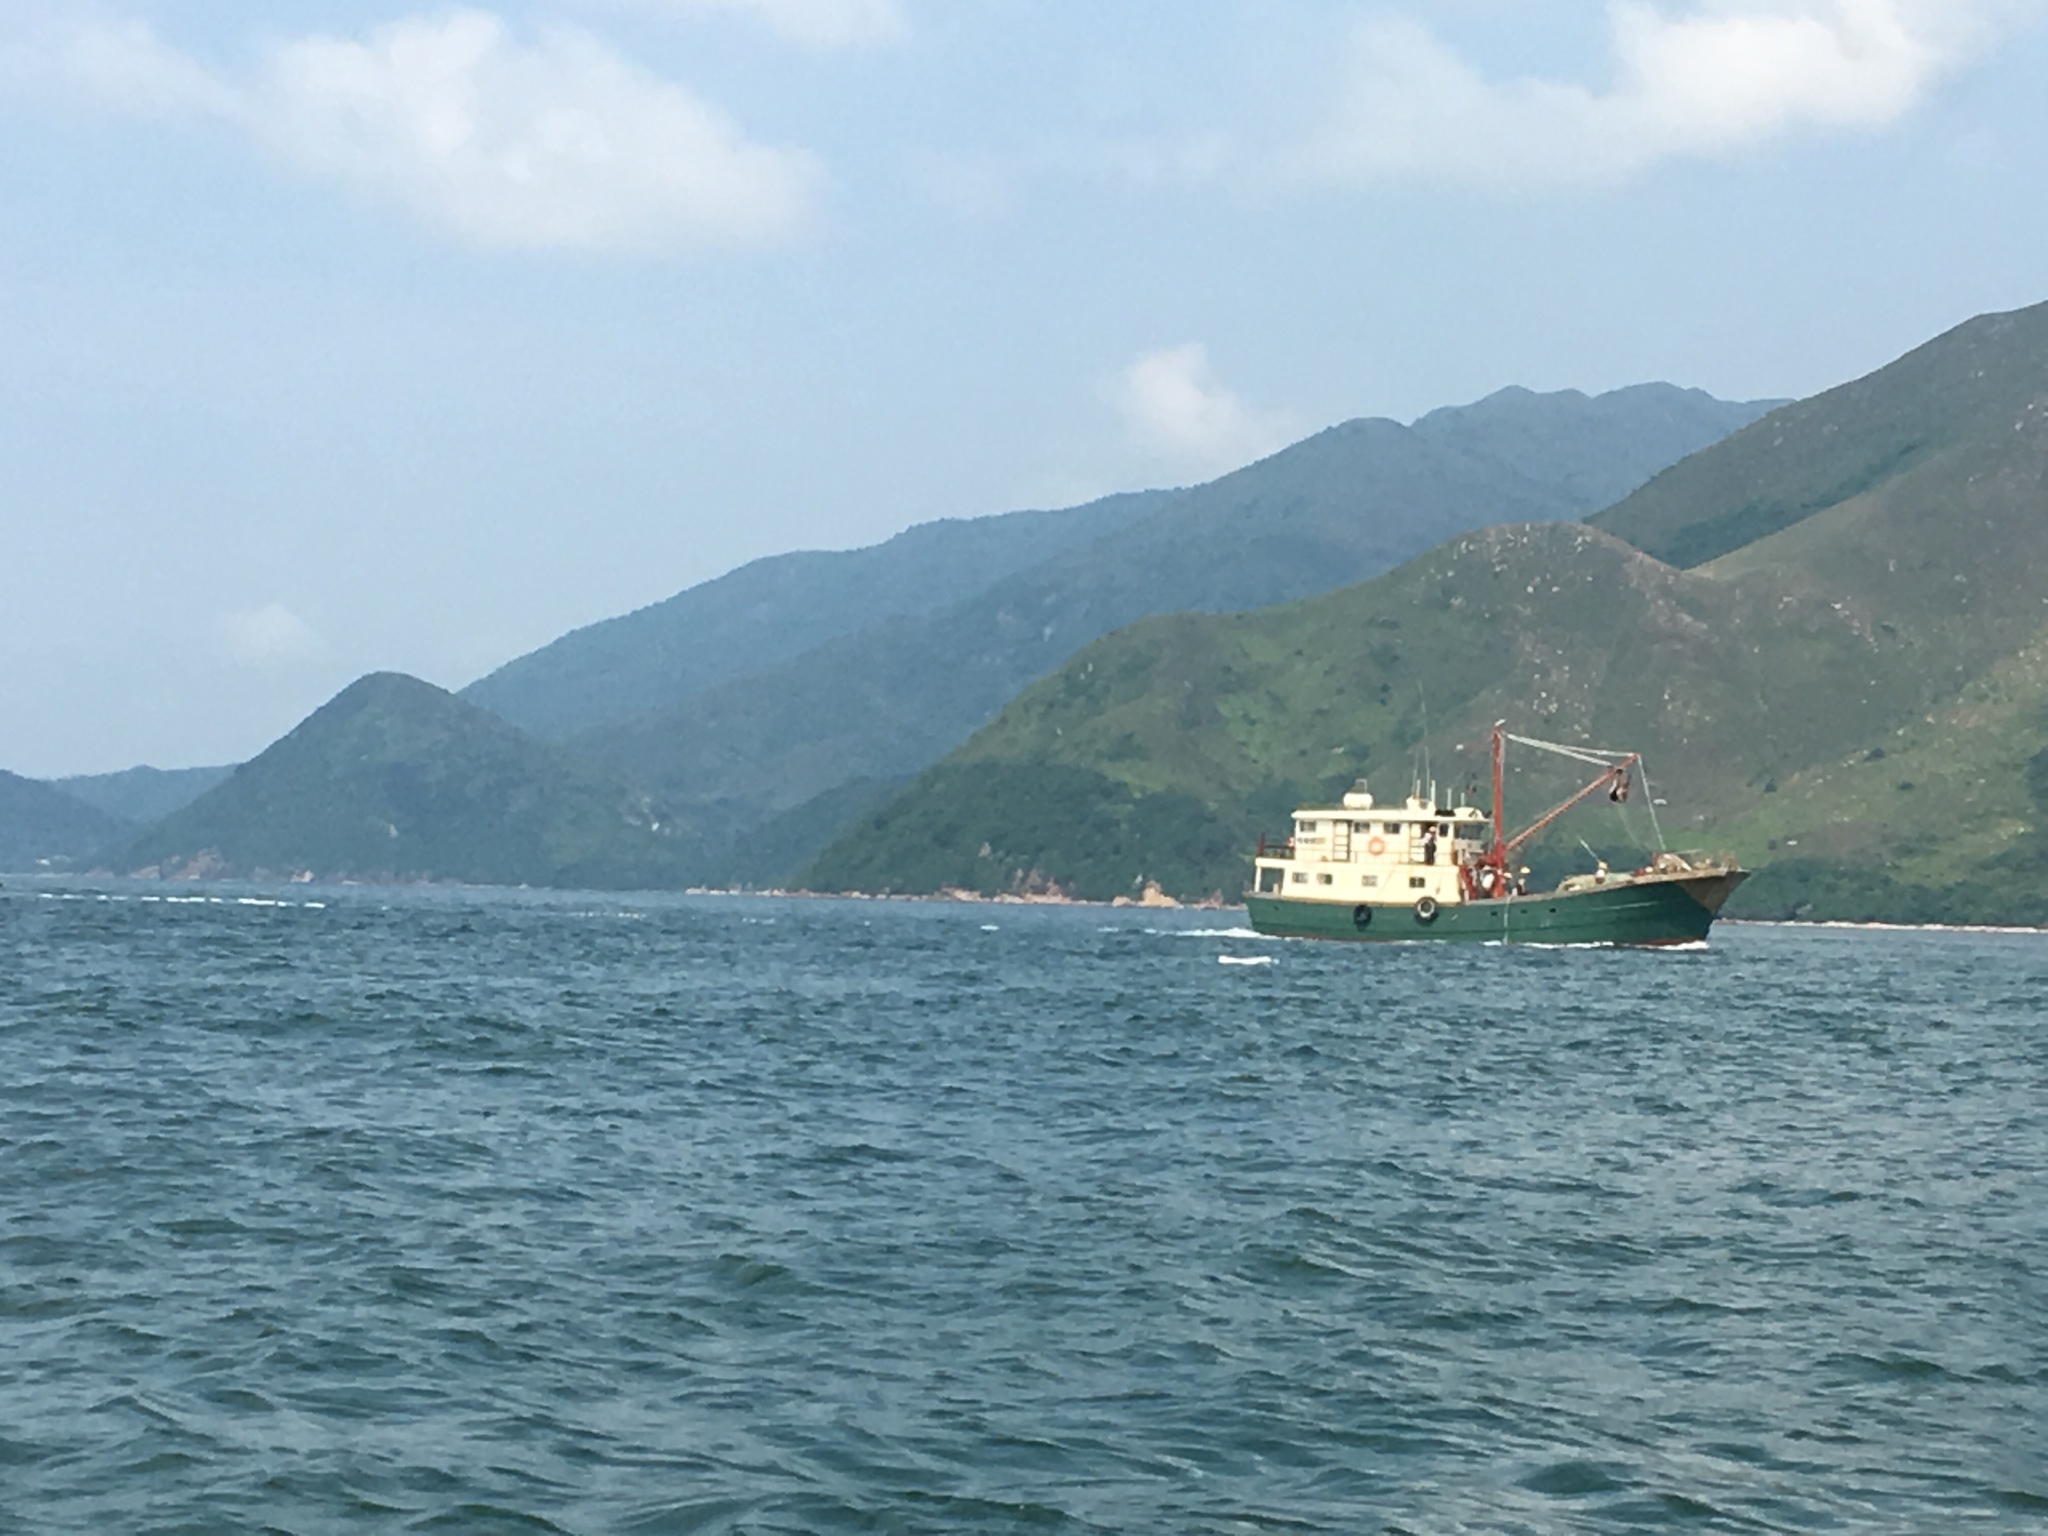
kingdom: Animalia
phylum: Chordata
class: Mammalia
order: Cetacea
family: Delphinidae
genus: Sousa
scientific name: Sousa chinensis
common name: Chinese white dolphin
